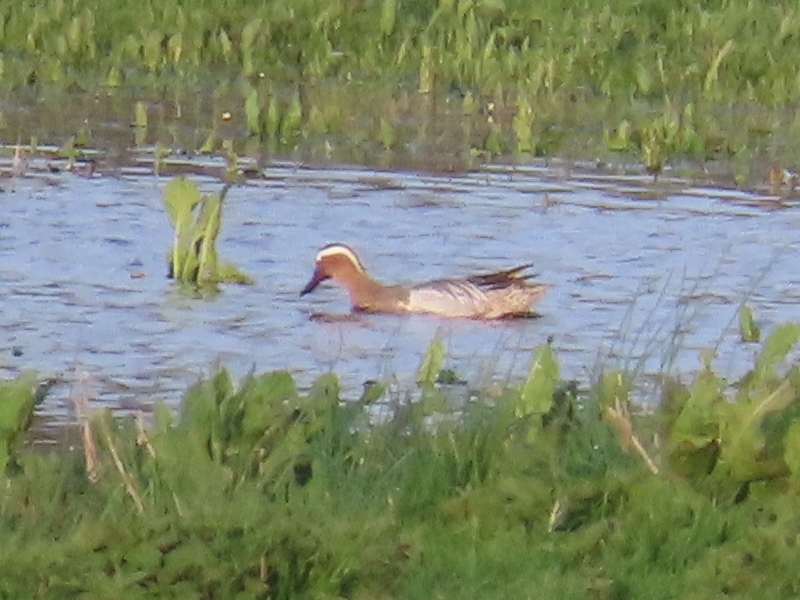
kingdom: Animalia
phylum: Chordata
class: Aves
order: Anseriformes
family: Anatidae
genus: Spatula
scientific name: Spatula querquedula
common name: Garganey
